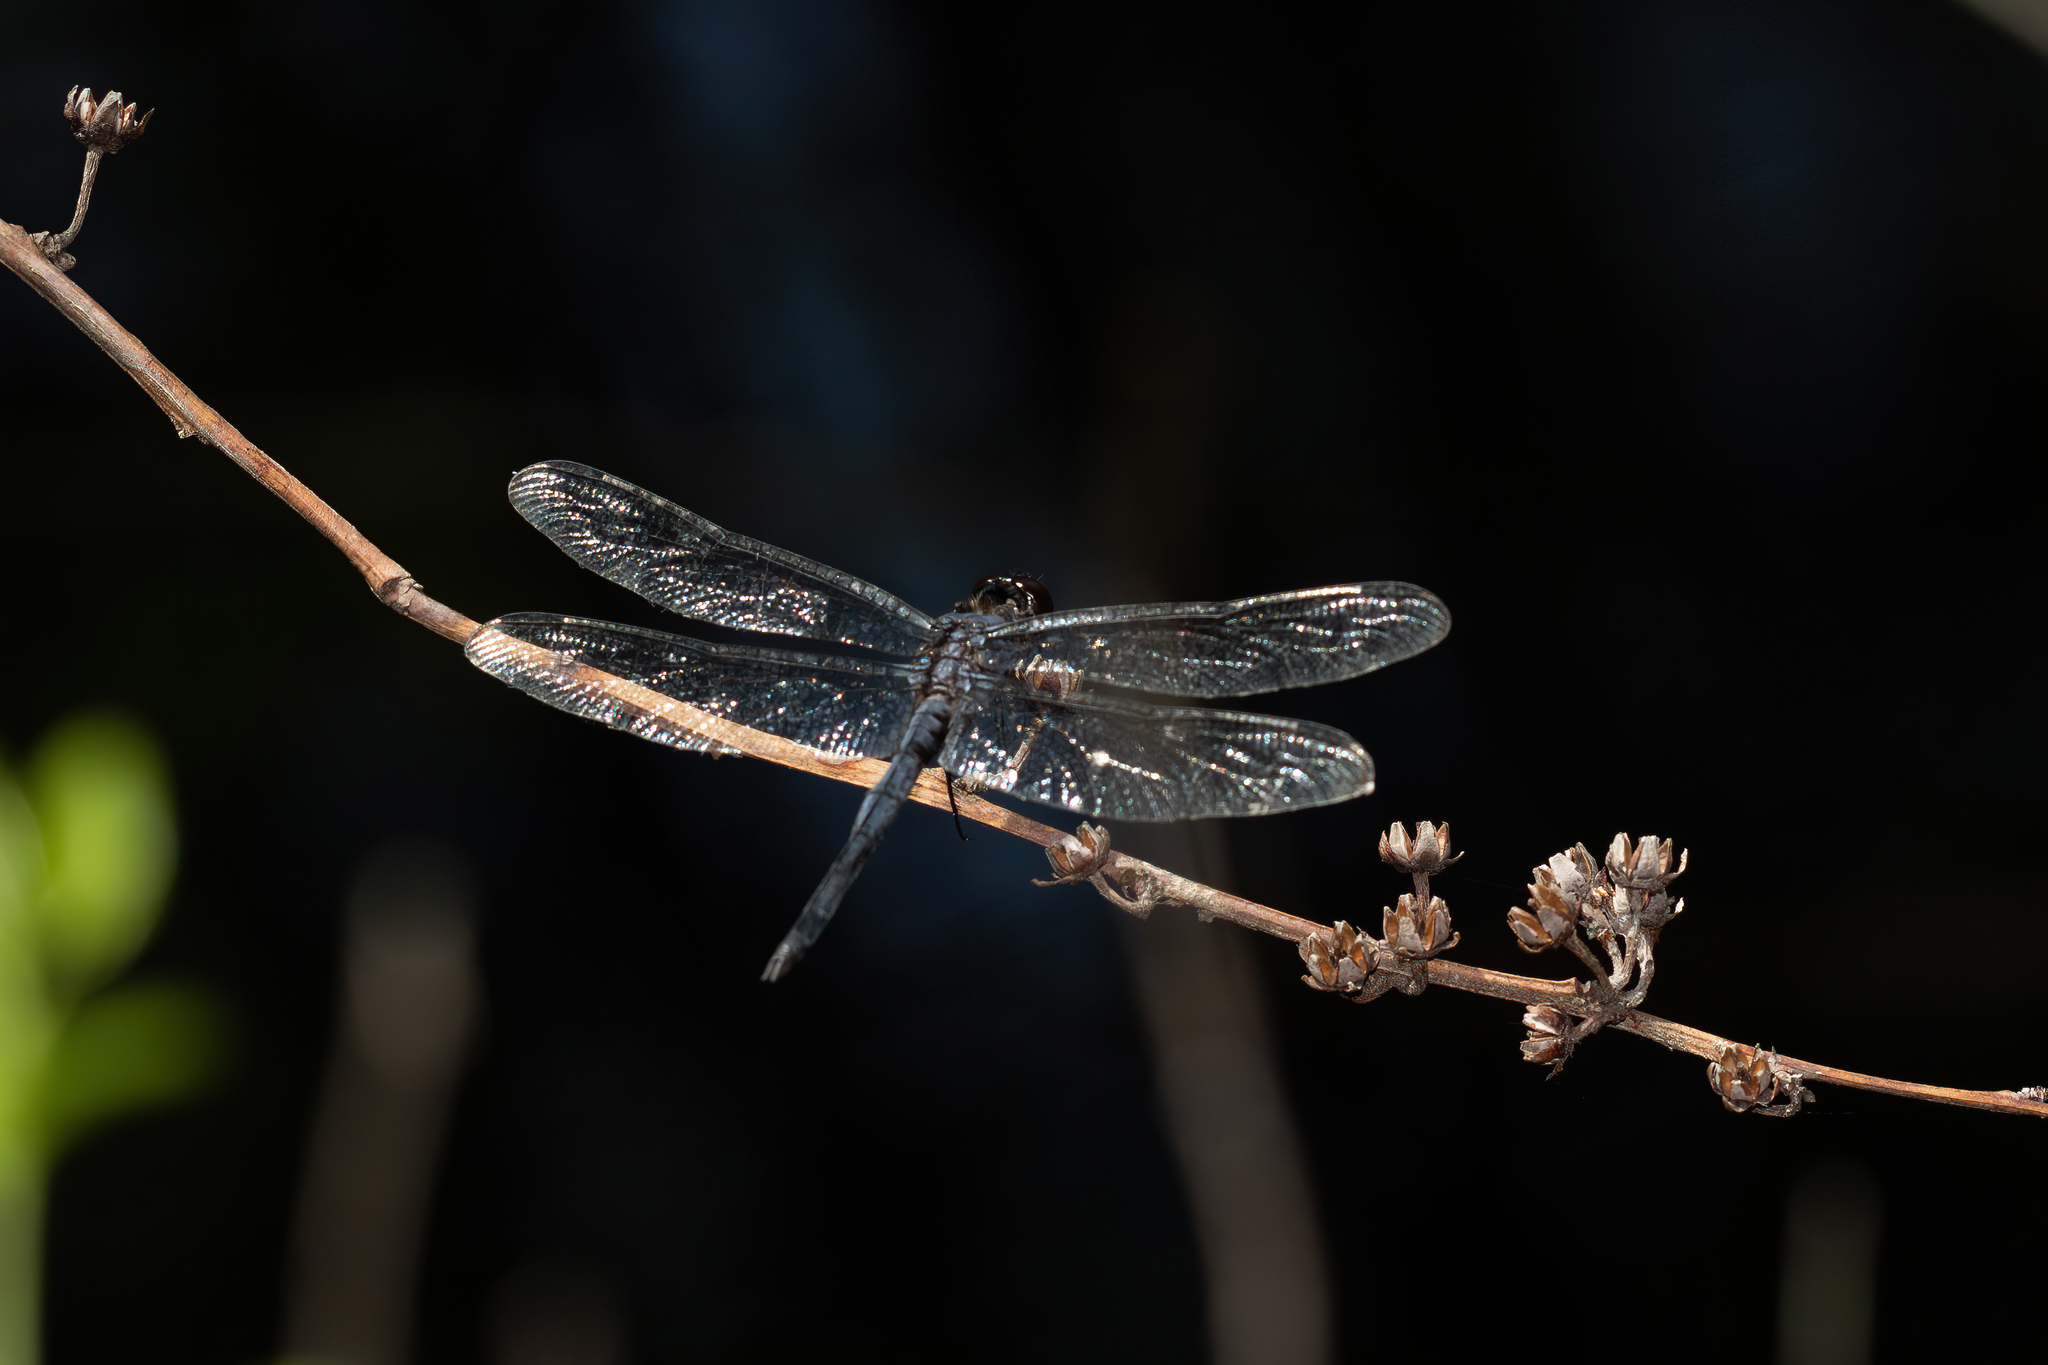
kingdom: Animalia
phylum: Arthropoda
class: Insecta
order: Odonata
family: Libellulidae
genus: Libellula
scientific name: Libellula incesta
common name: Slaty skimmer
